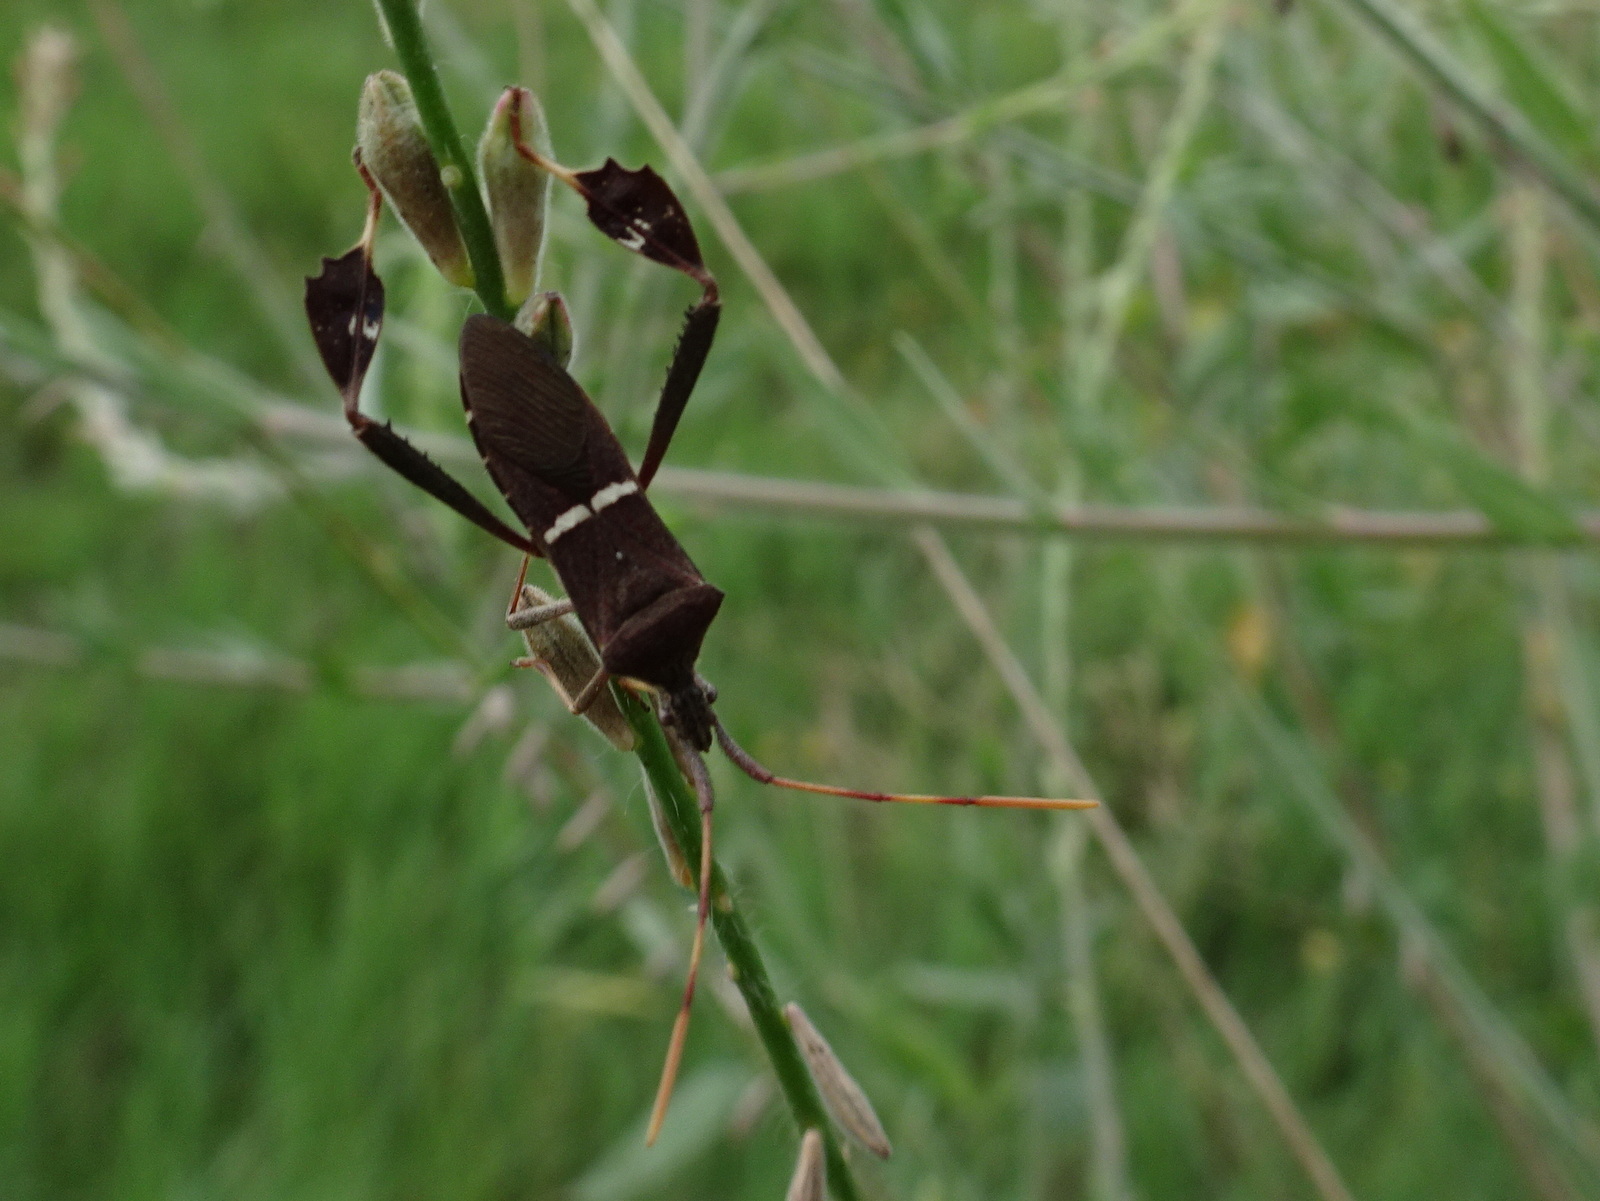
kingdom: Animalia
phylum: Arthropoda
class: Insecta
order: Hemiptera
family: Coreidae
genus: Leptoglossus
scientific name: Leptoglossus phyllopus
